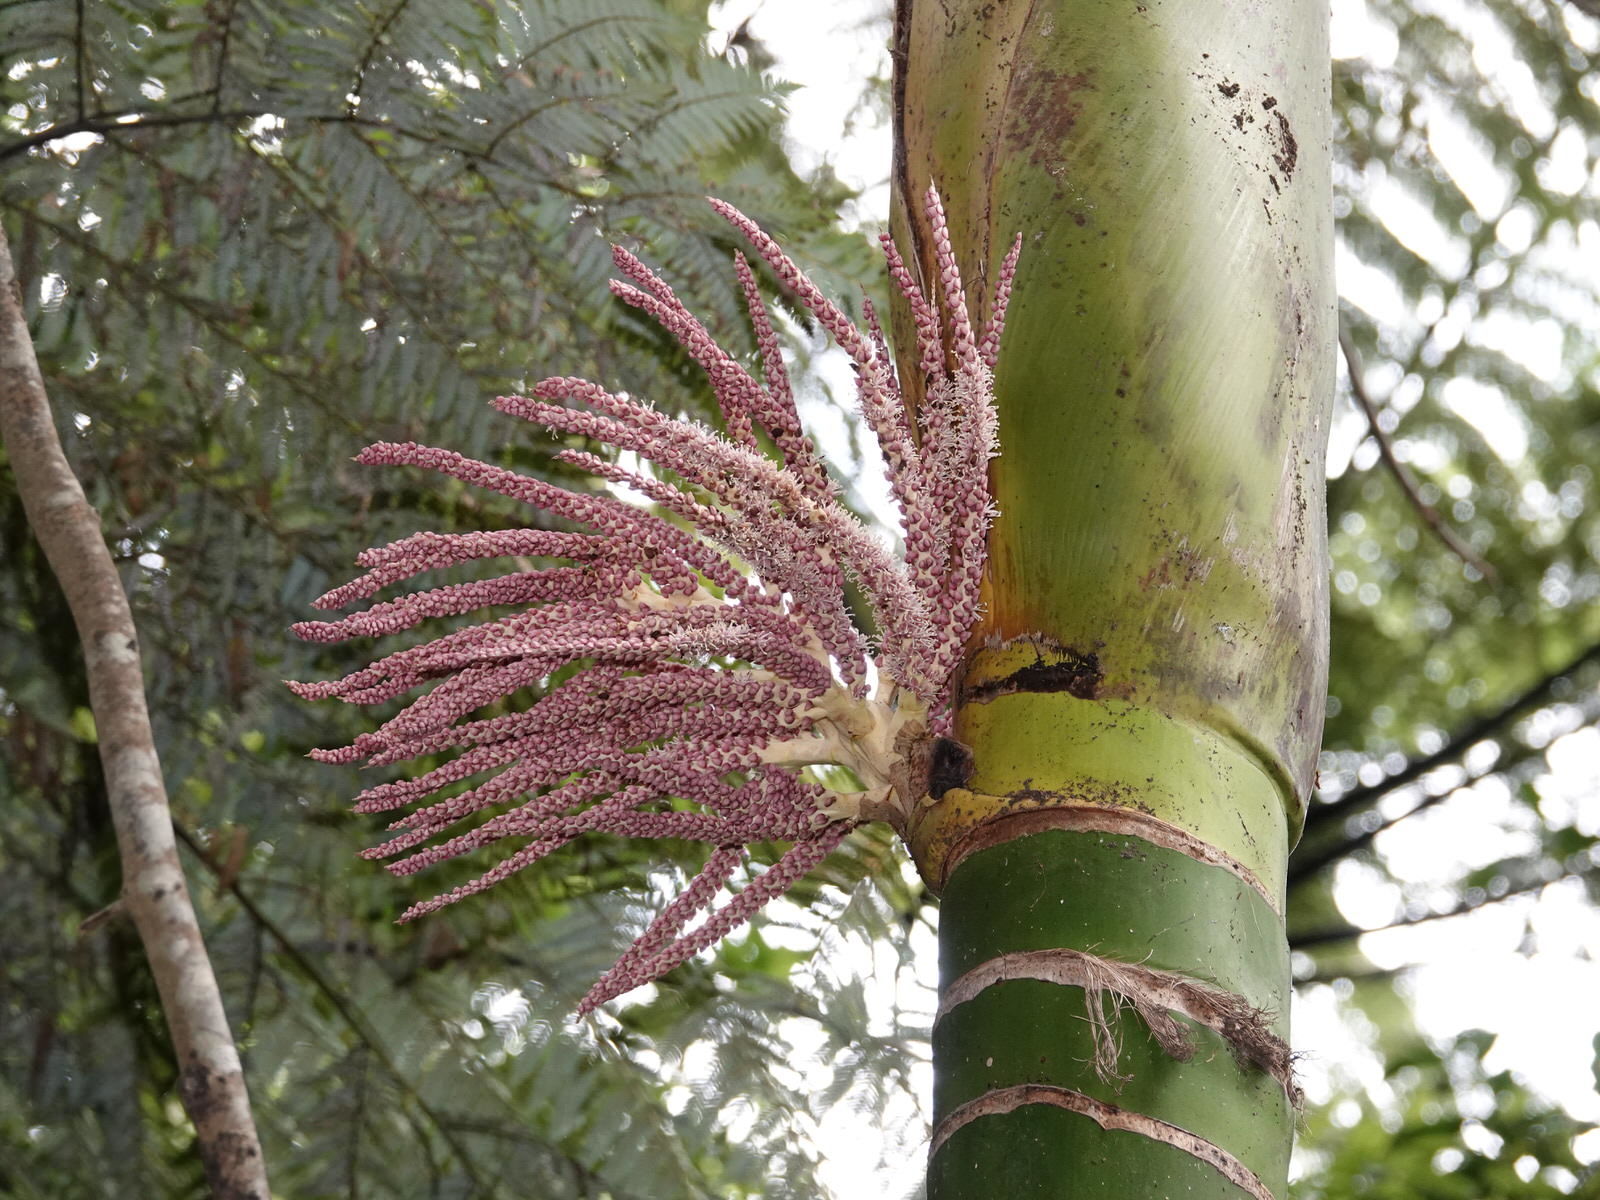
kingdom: Plantae
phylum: Tracheophyta
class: Liliopsida
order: Arecales
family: Arecaceae
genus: Rhopalostylis
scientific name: Rhopalostylis sapida
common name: Feather-duster palm
